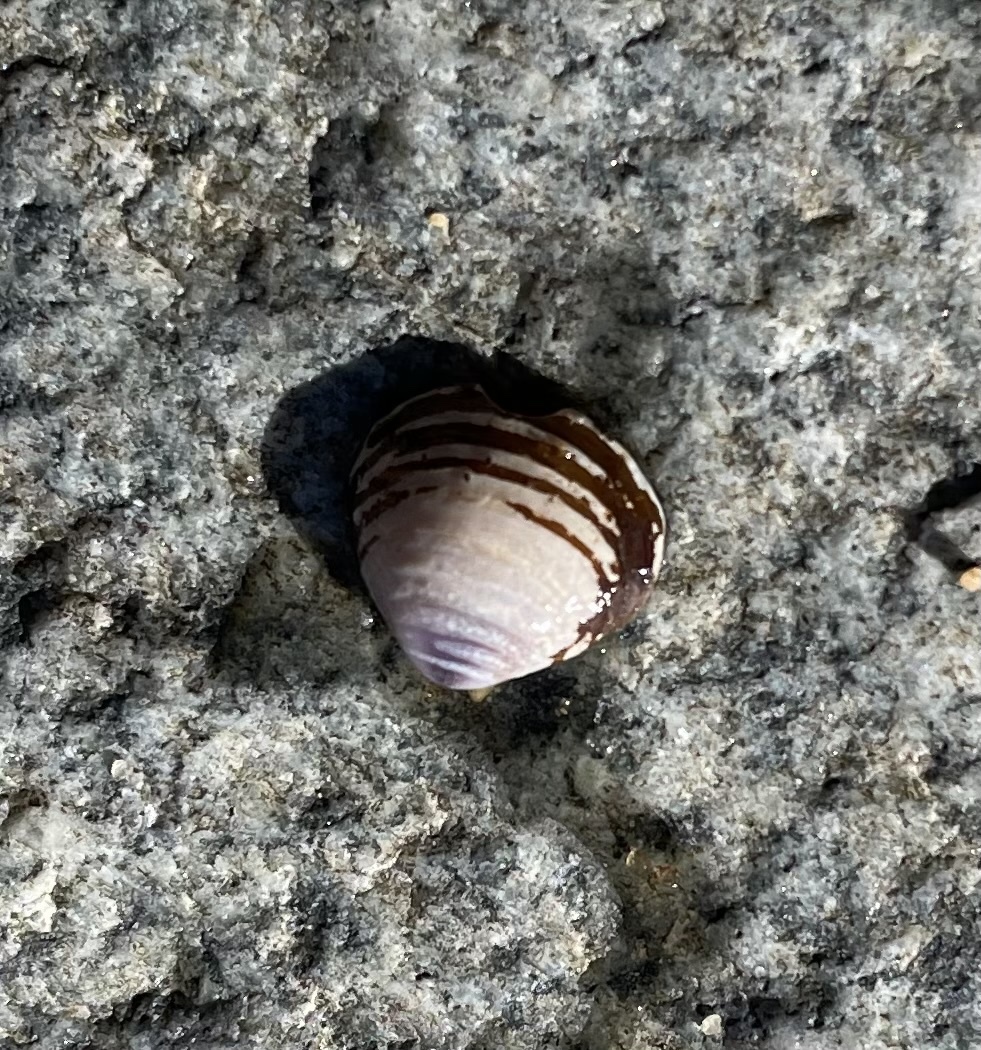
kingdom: Animalia
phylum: Mollusca
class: Bivalvia
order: Venerida
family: Cyrenidae
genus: Corbicula
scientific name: Corbicula fluminea
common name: Asian clam
